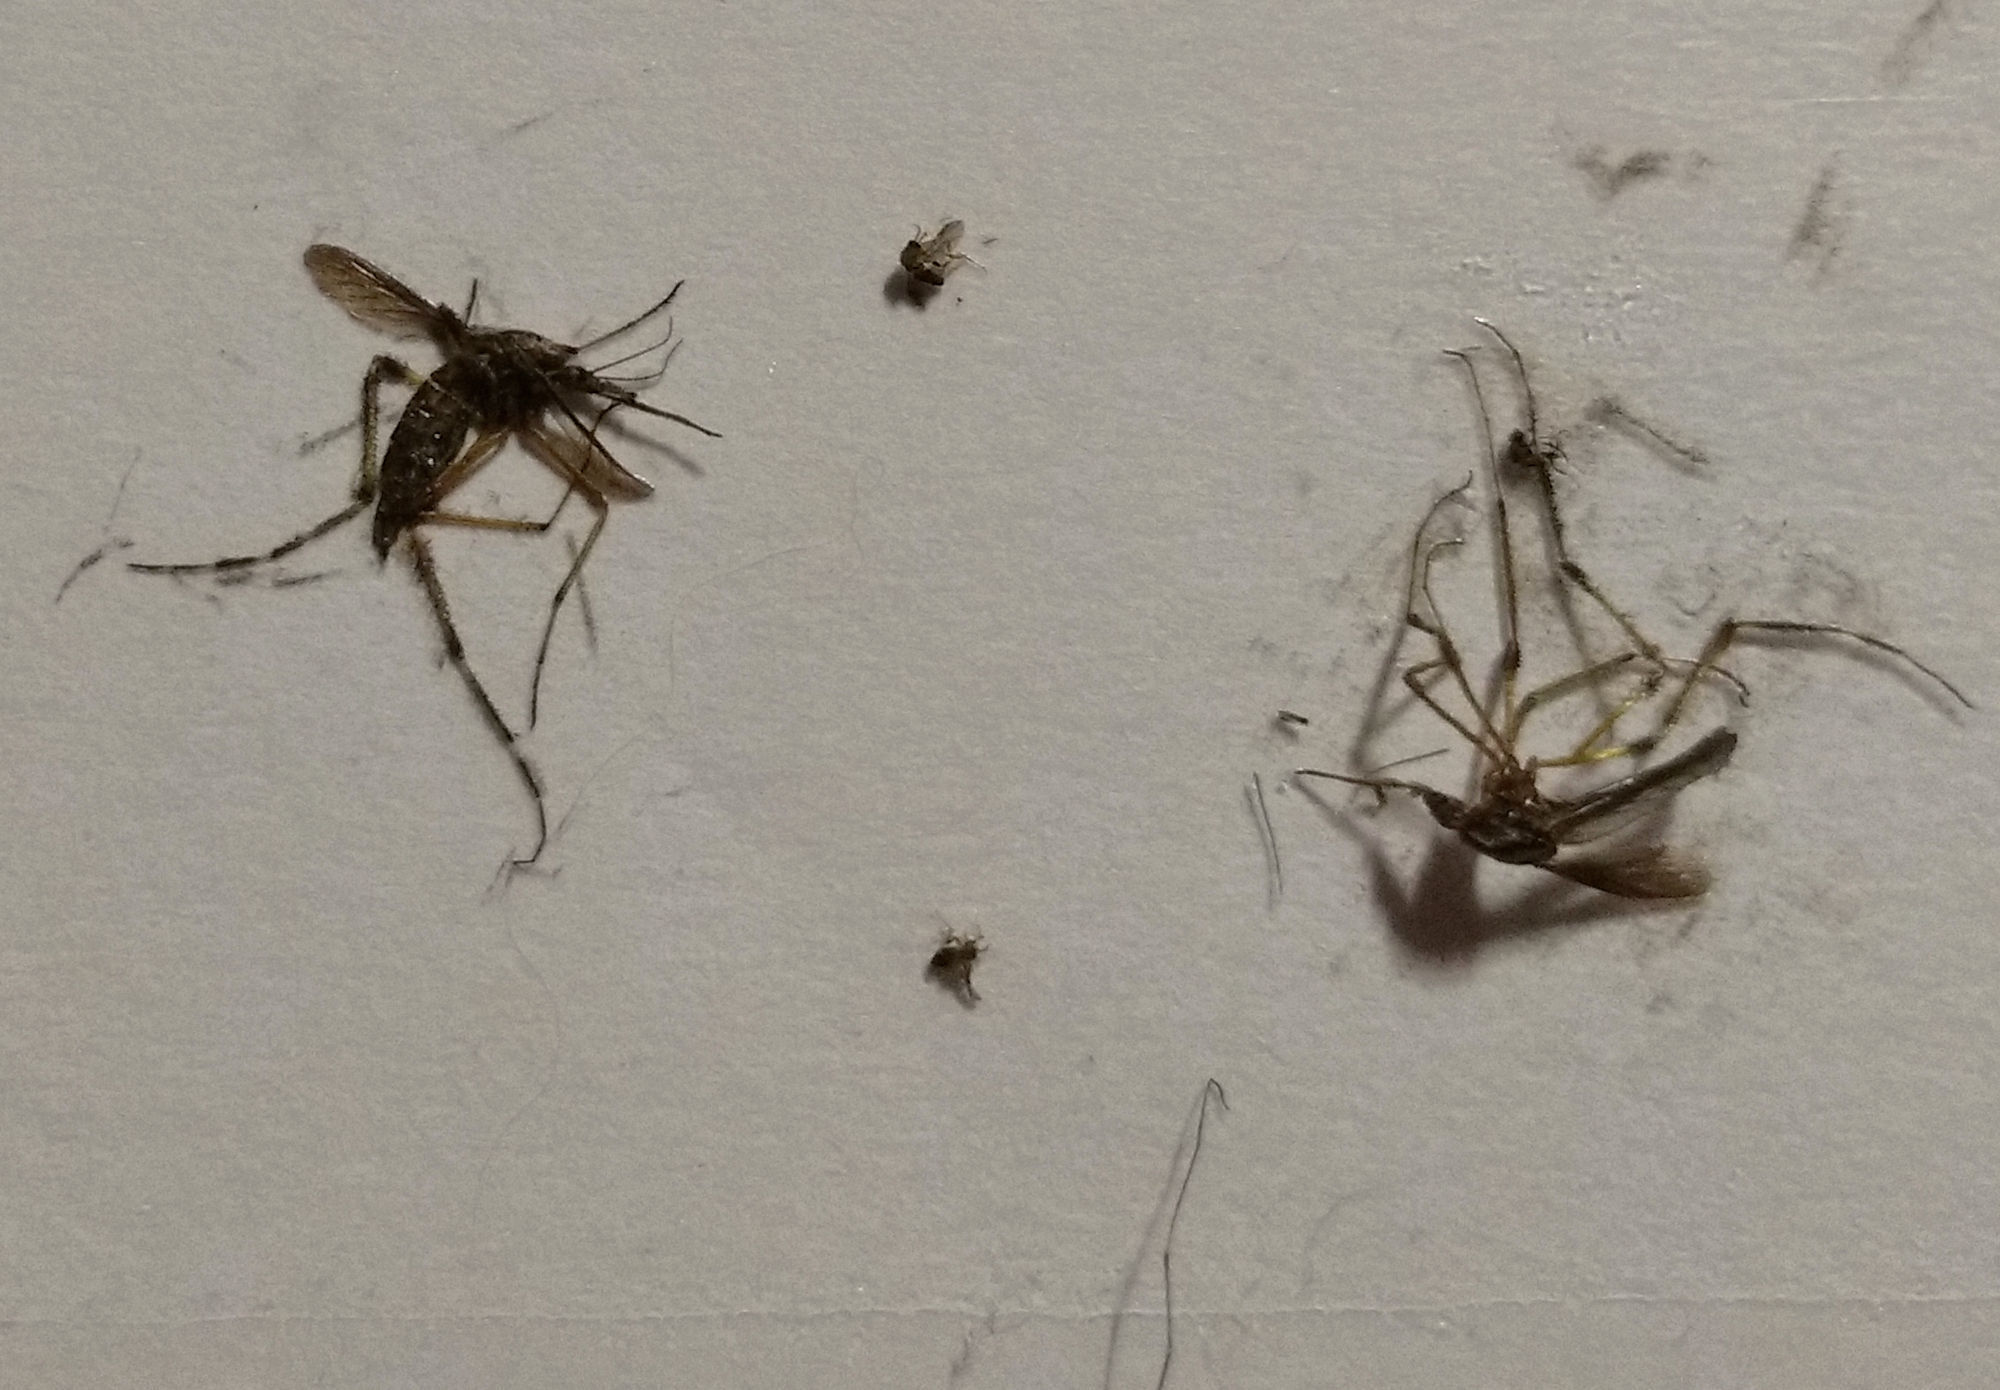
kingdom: Animalia
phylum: Arthropoda
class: Insecta
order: Diptera
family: Culicidae
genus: Psorophora
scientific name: Psorophora ciliata
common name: Gallinipper
